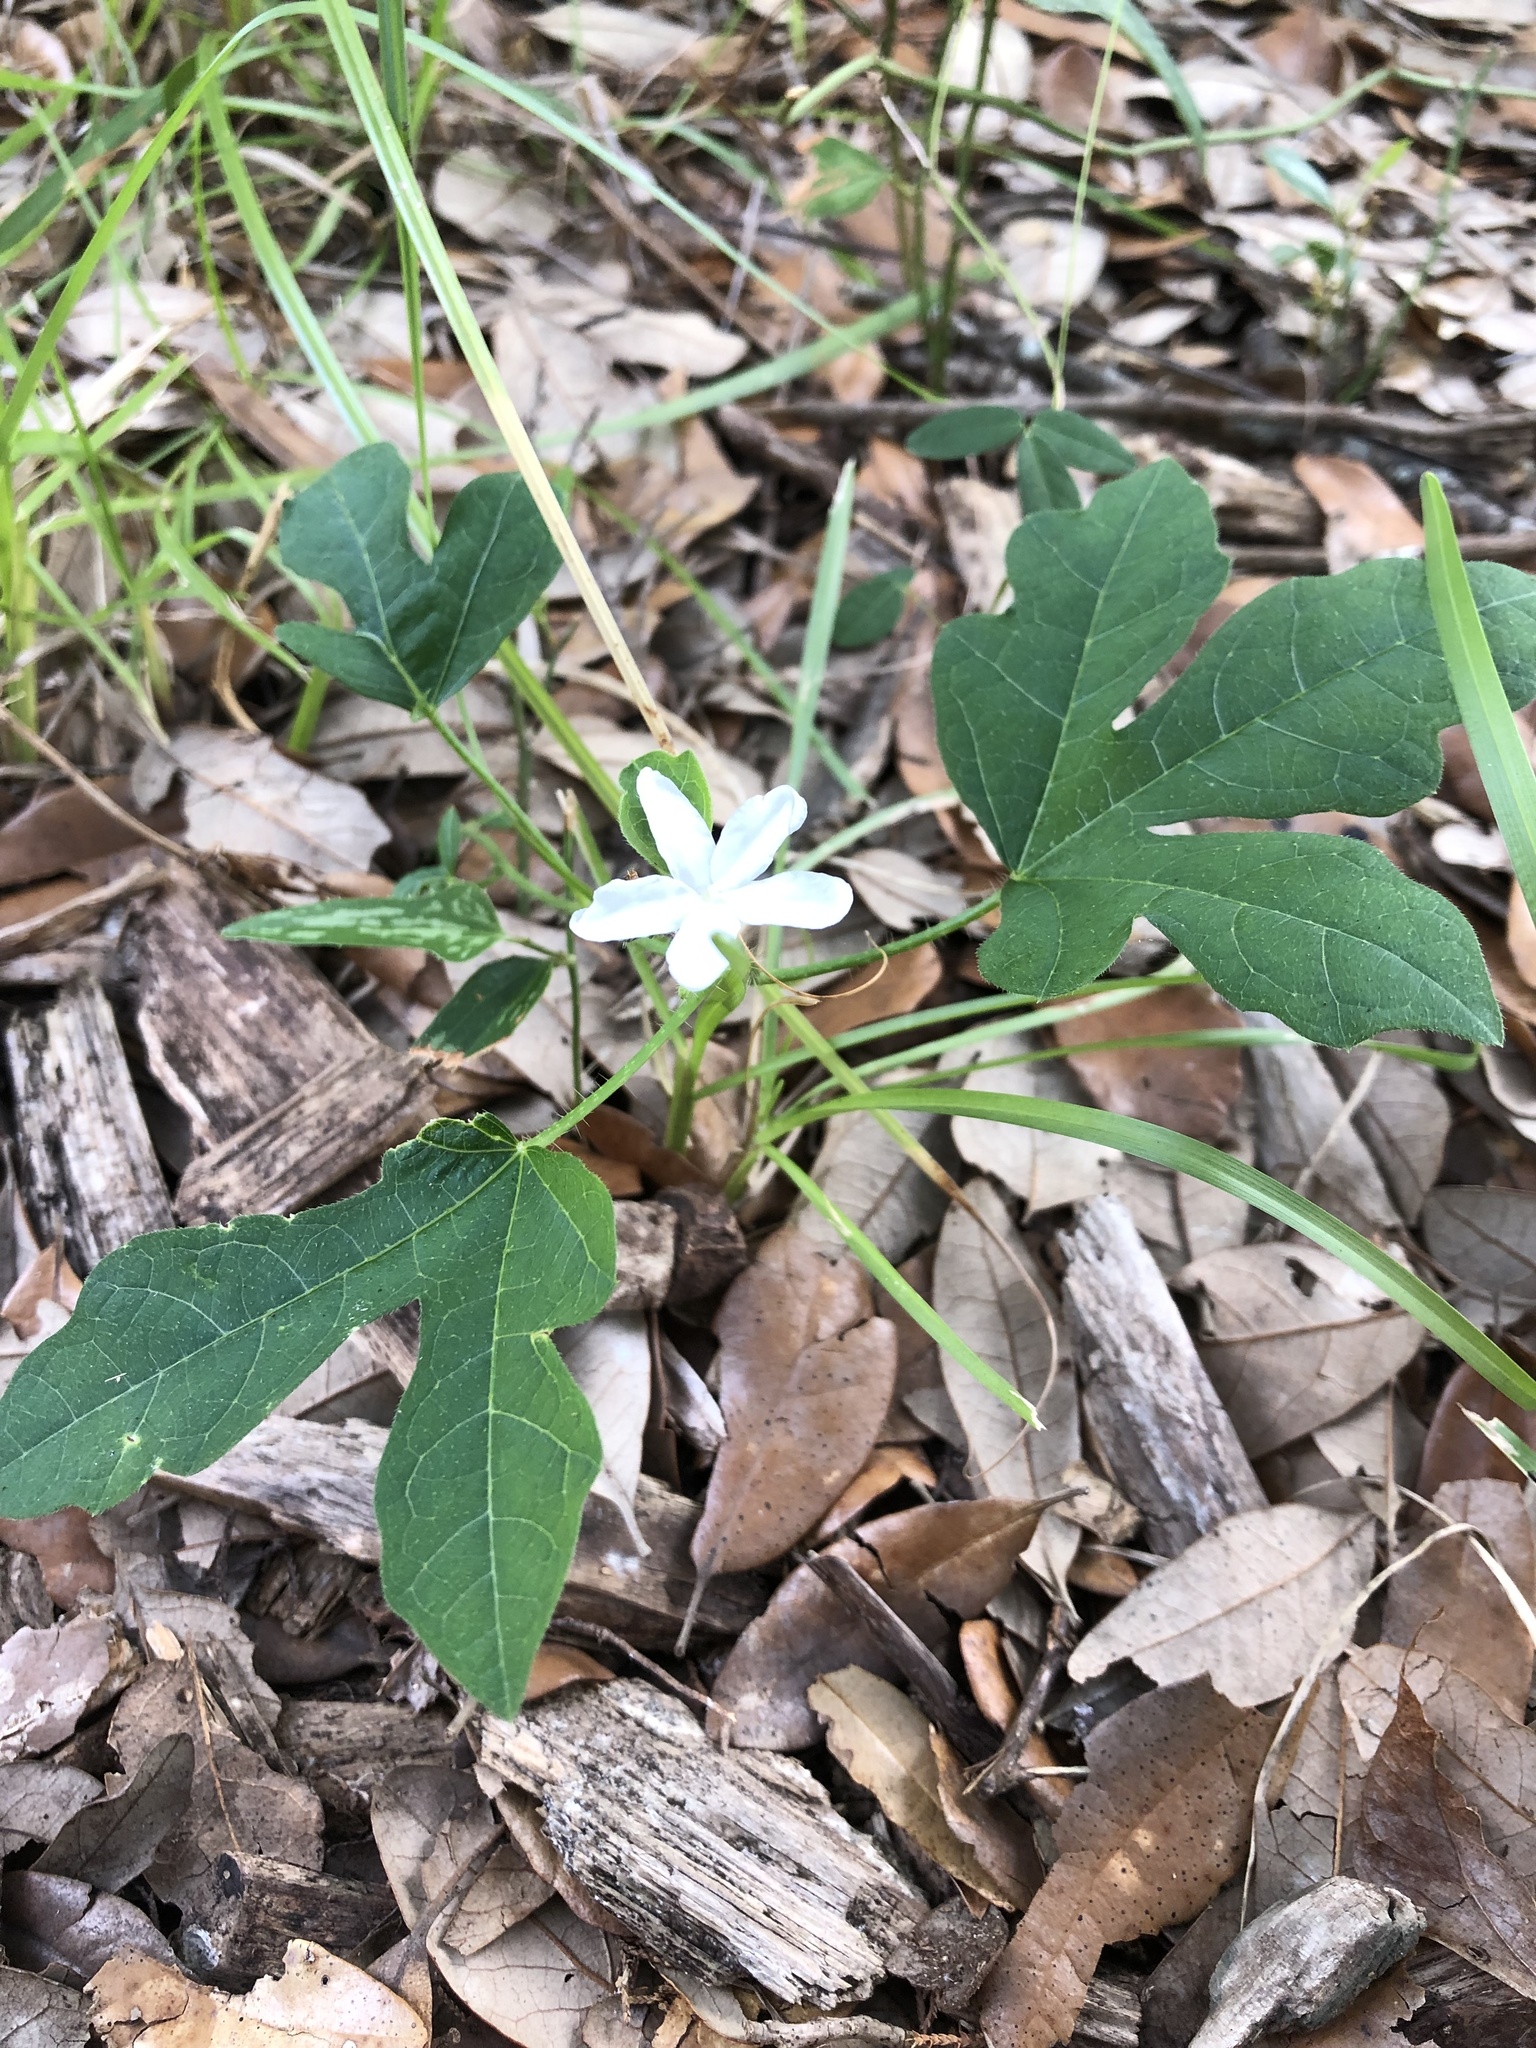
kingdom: Plantae
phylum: Tracheophyta
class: Magnoliopsida
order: Malpighiales
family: Euphorbiaceae
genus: Cnidoscolus
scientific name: Cnidoscolus stimulosus
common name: Bull-nettle
